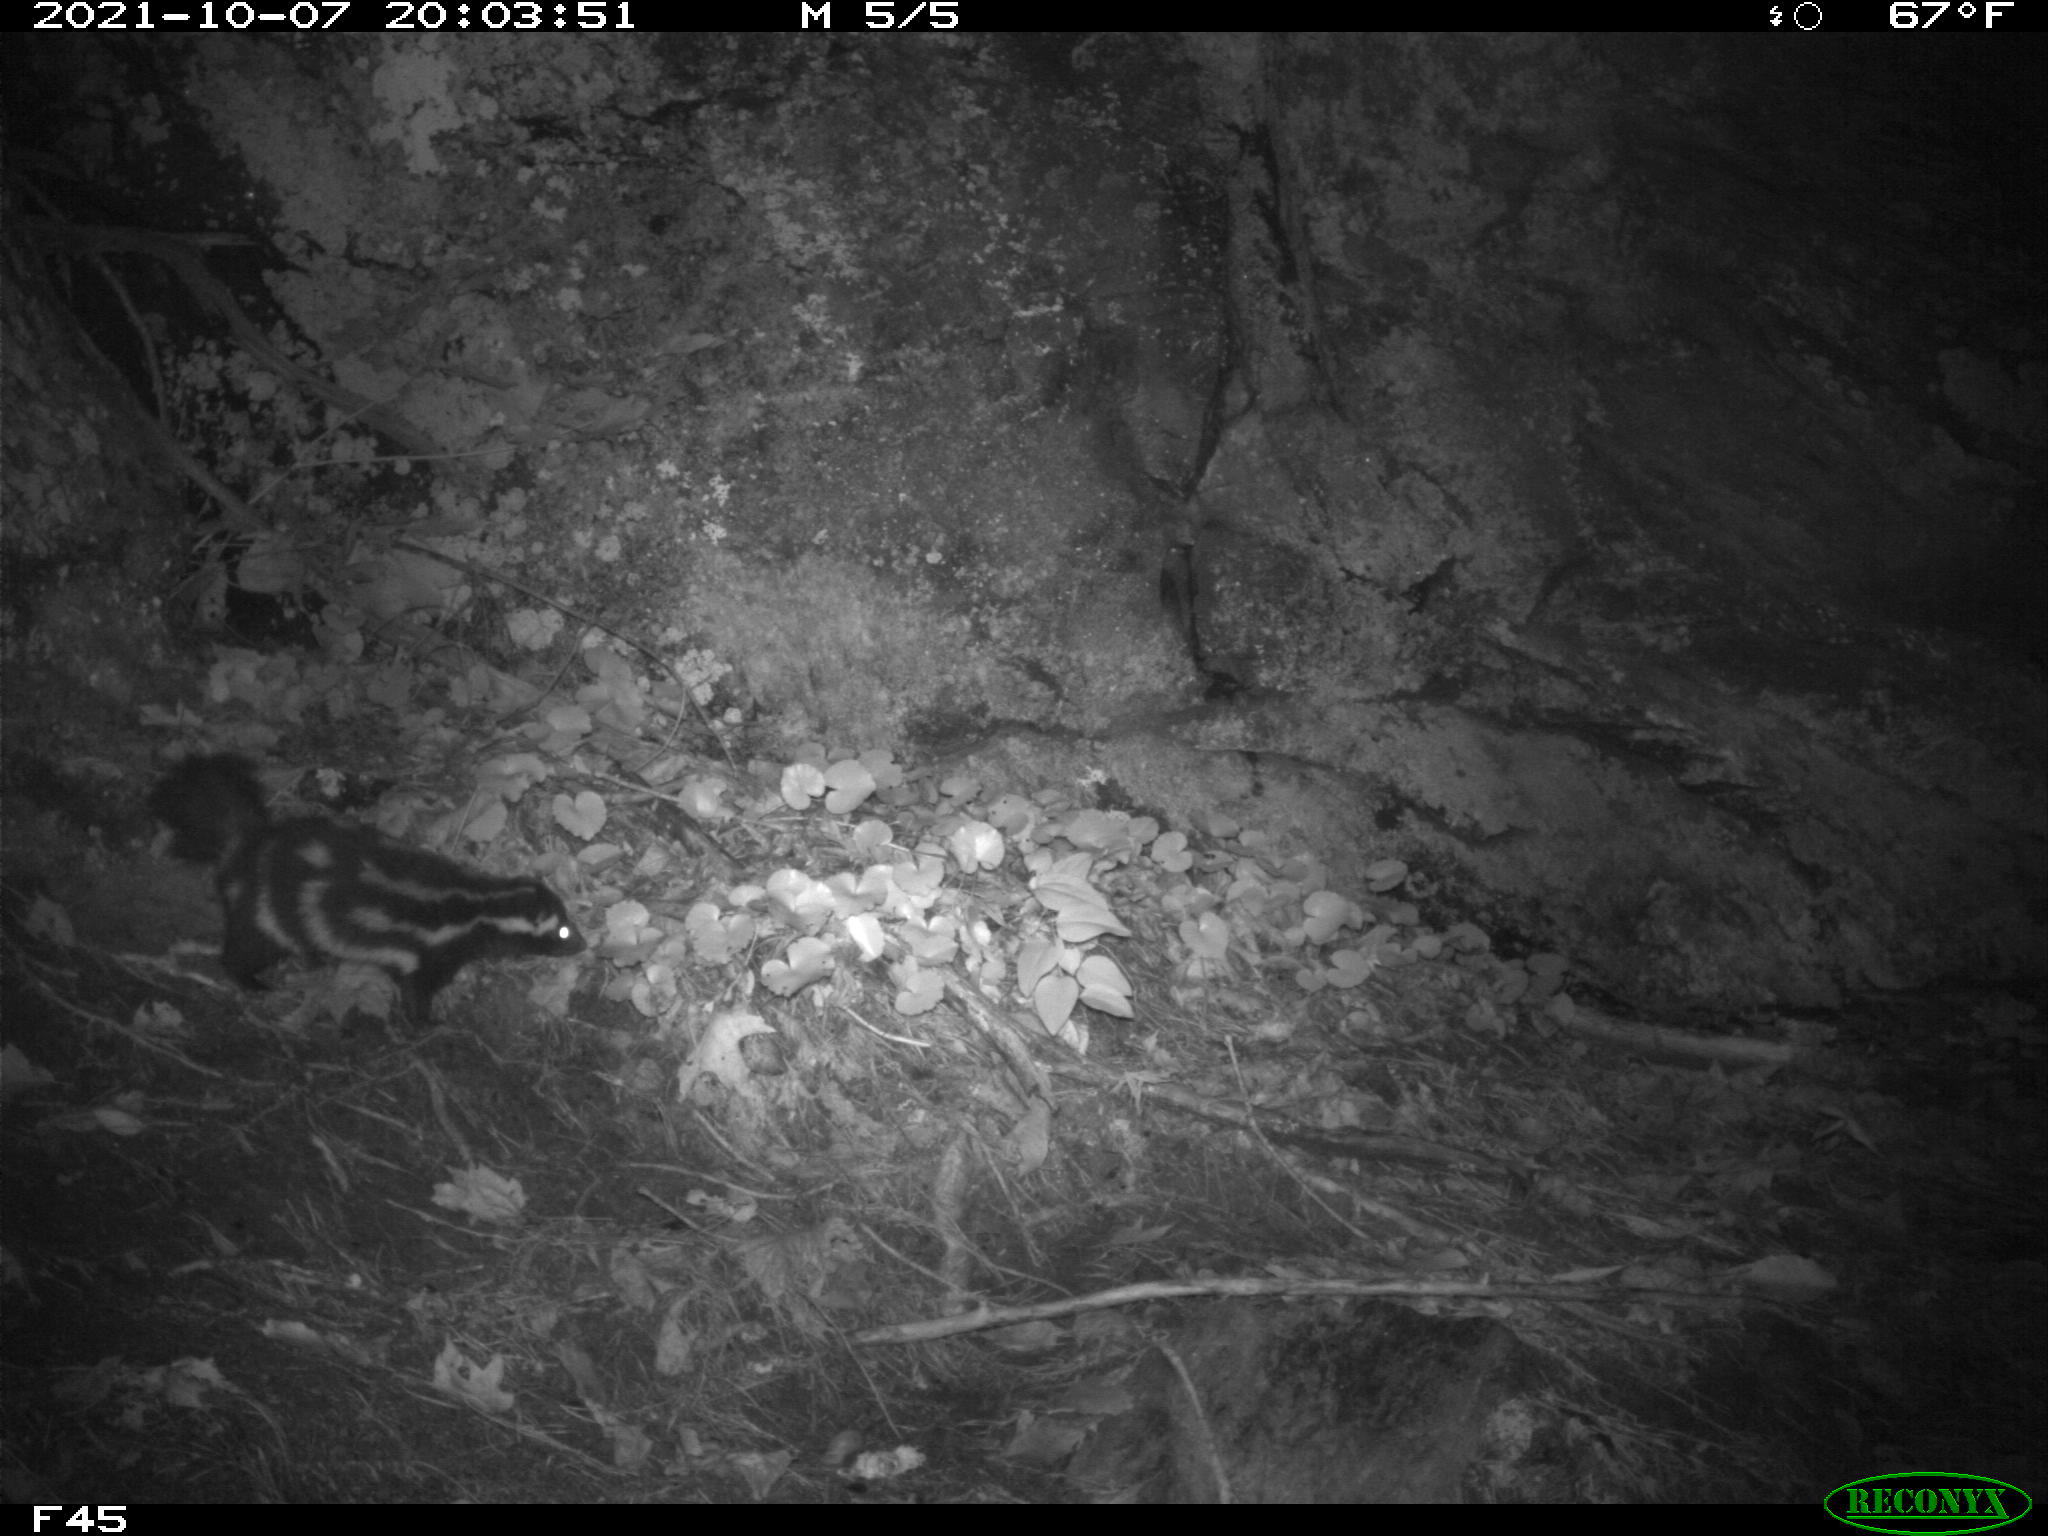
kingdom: Animalia
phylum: Chordata
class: Mammalia
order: Carnivora
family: Mephitidae
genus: Spilogale
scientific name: Spilogale putorius
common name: Eastern spotted skunk
